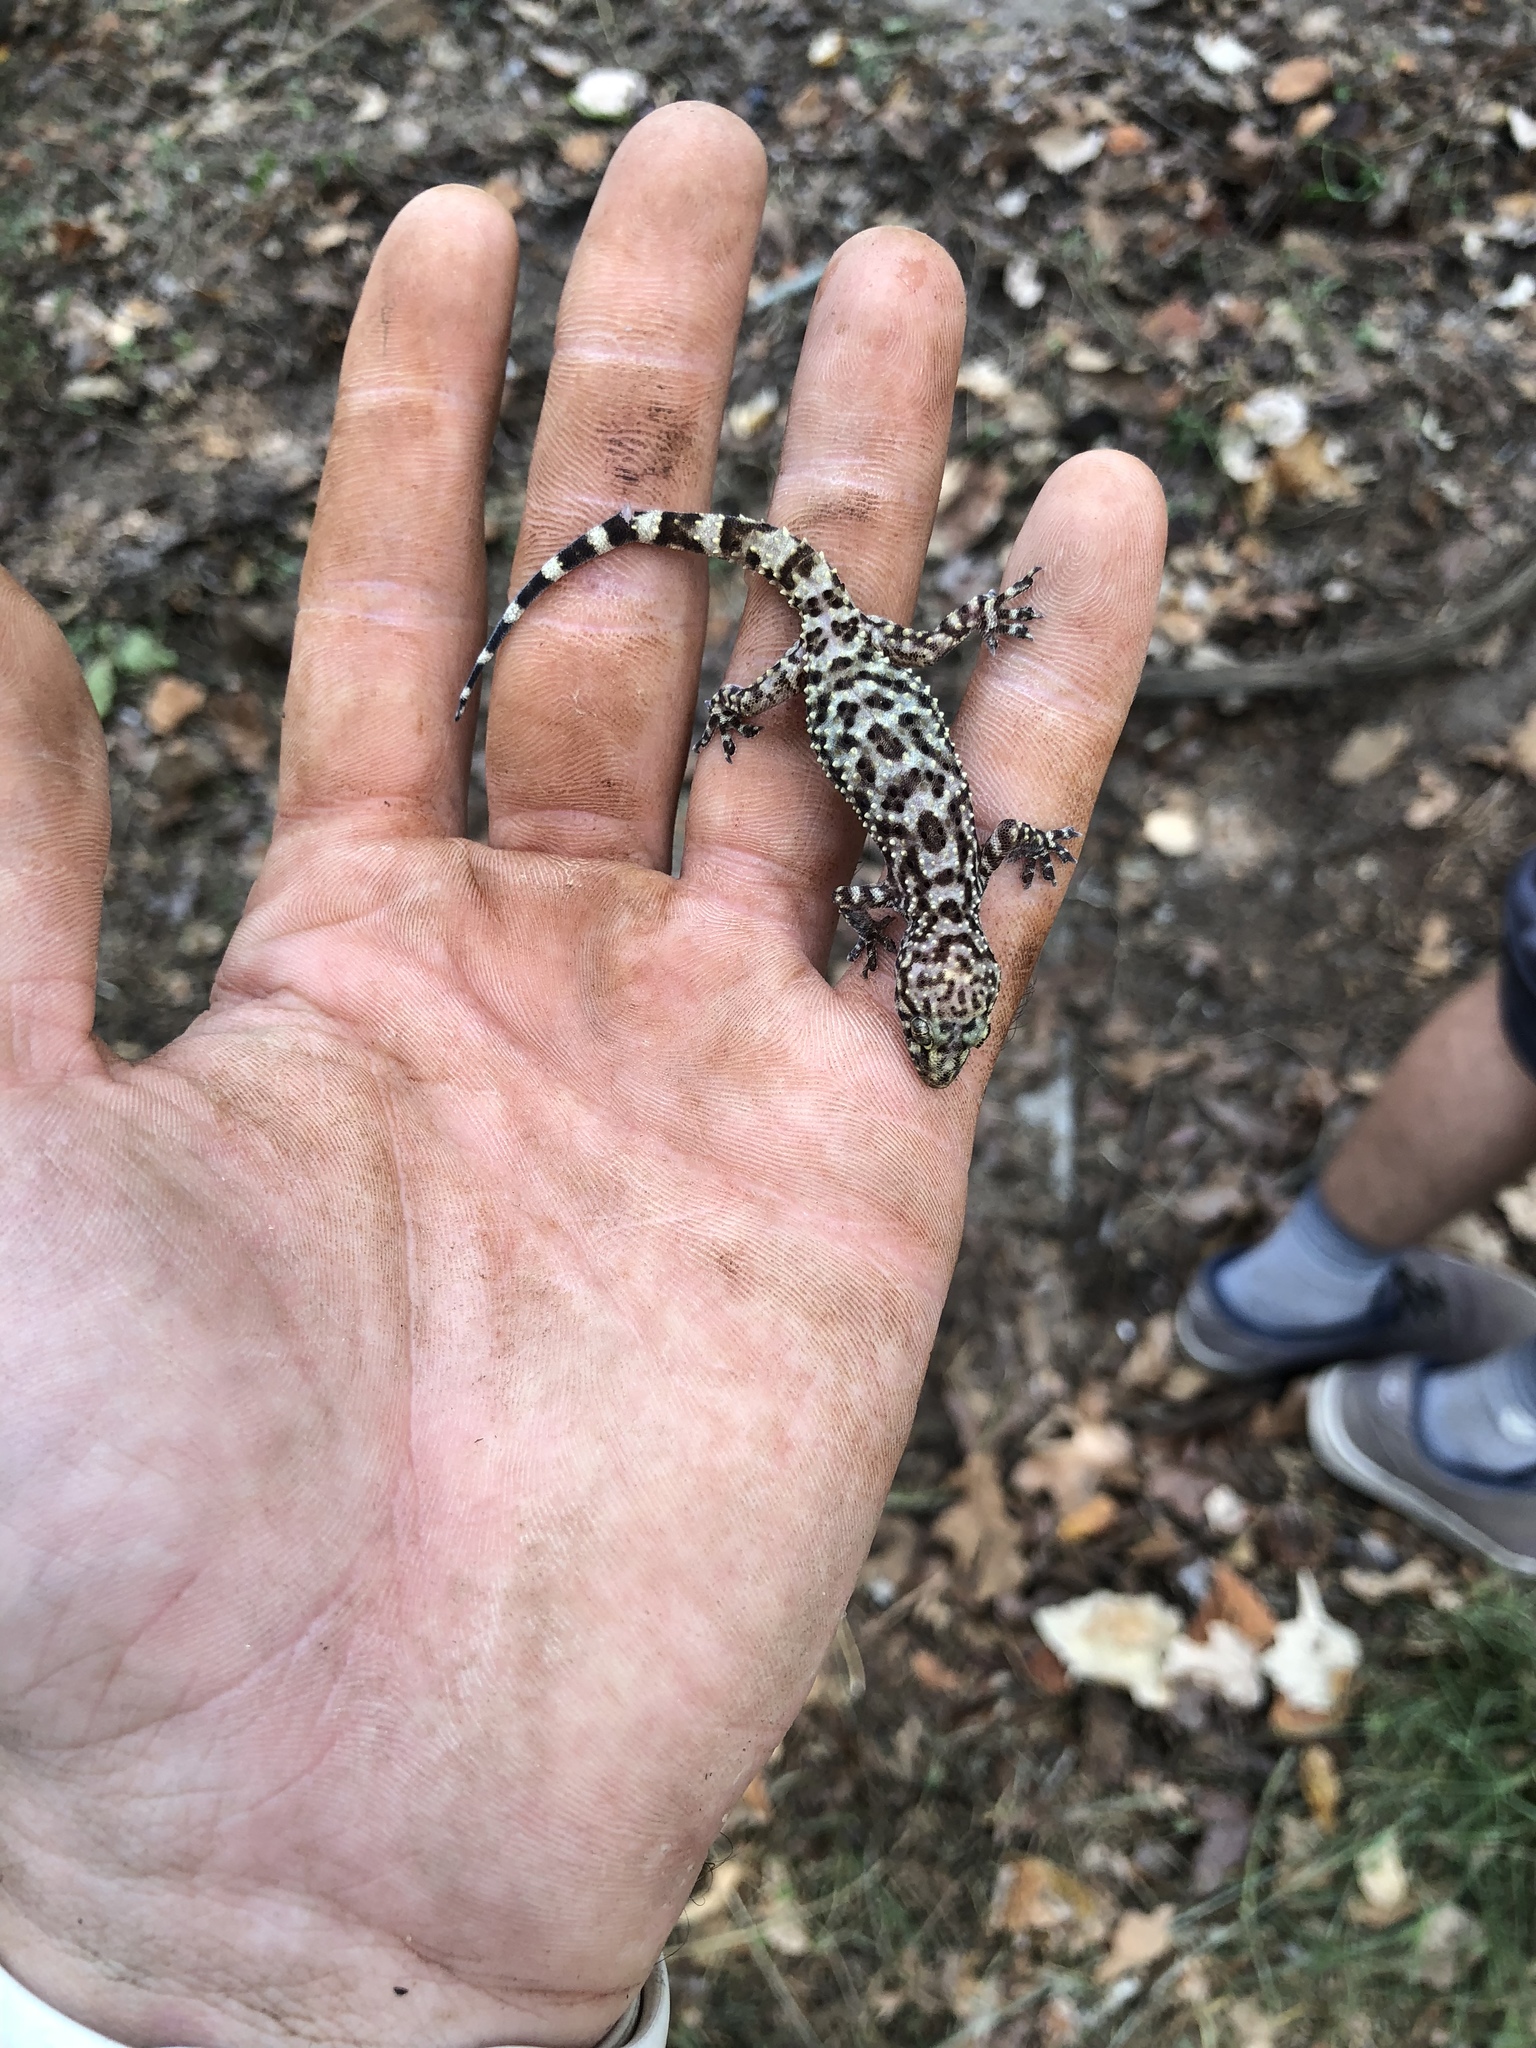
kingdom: Animalia
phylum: Chordata
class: Squamata
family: Gekkonidae
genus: Hemidactylus
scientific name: Hemidactylus turcicus
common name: Turkish gecko
